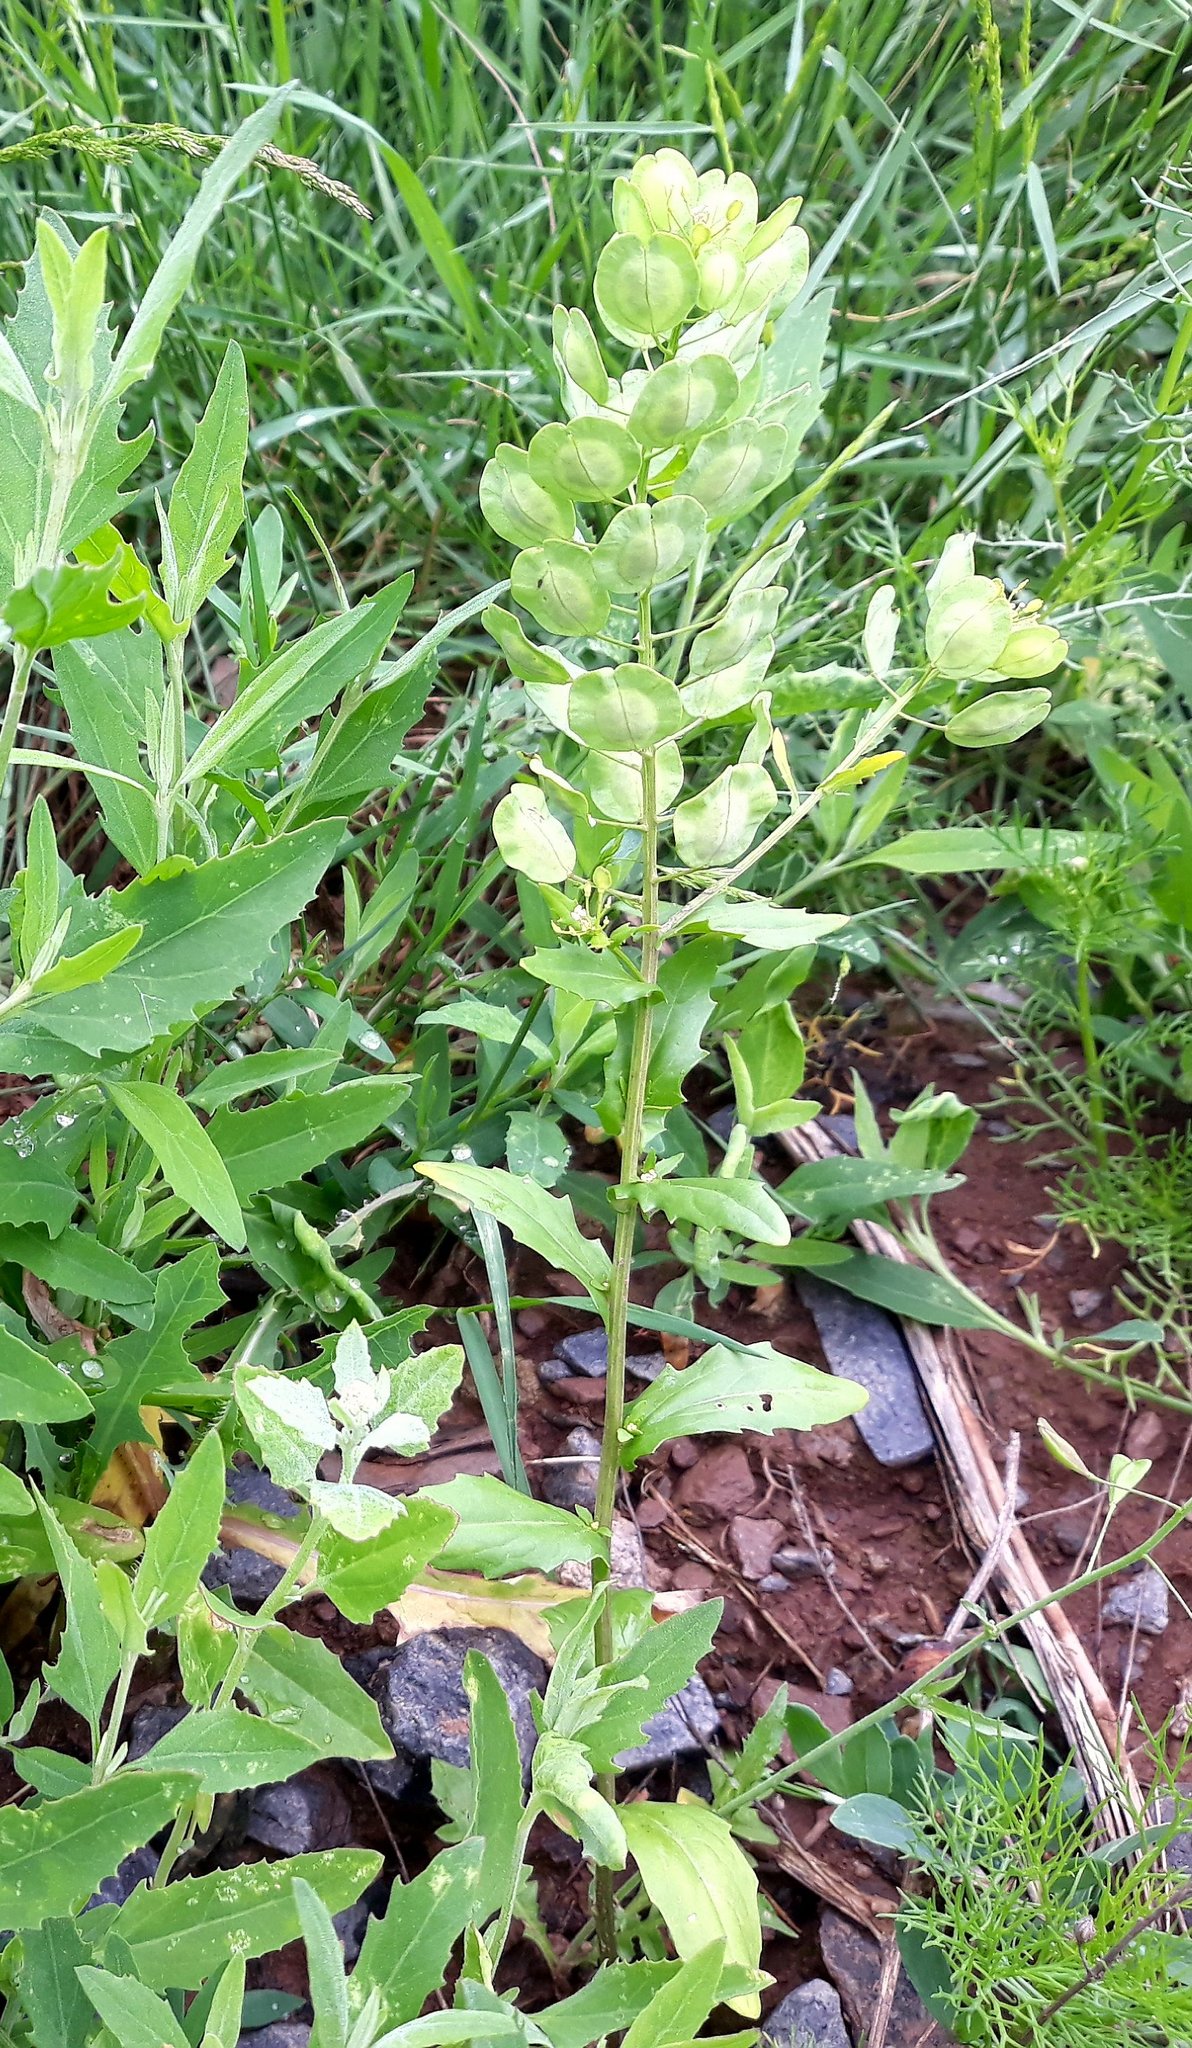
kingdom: Plantae
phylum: Tracheophyta
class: Magnoliopsida
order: Brassicales
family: Brassicaceae
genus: Thlaspi
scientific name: Thlaspi arvense
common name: Field pennycress
